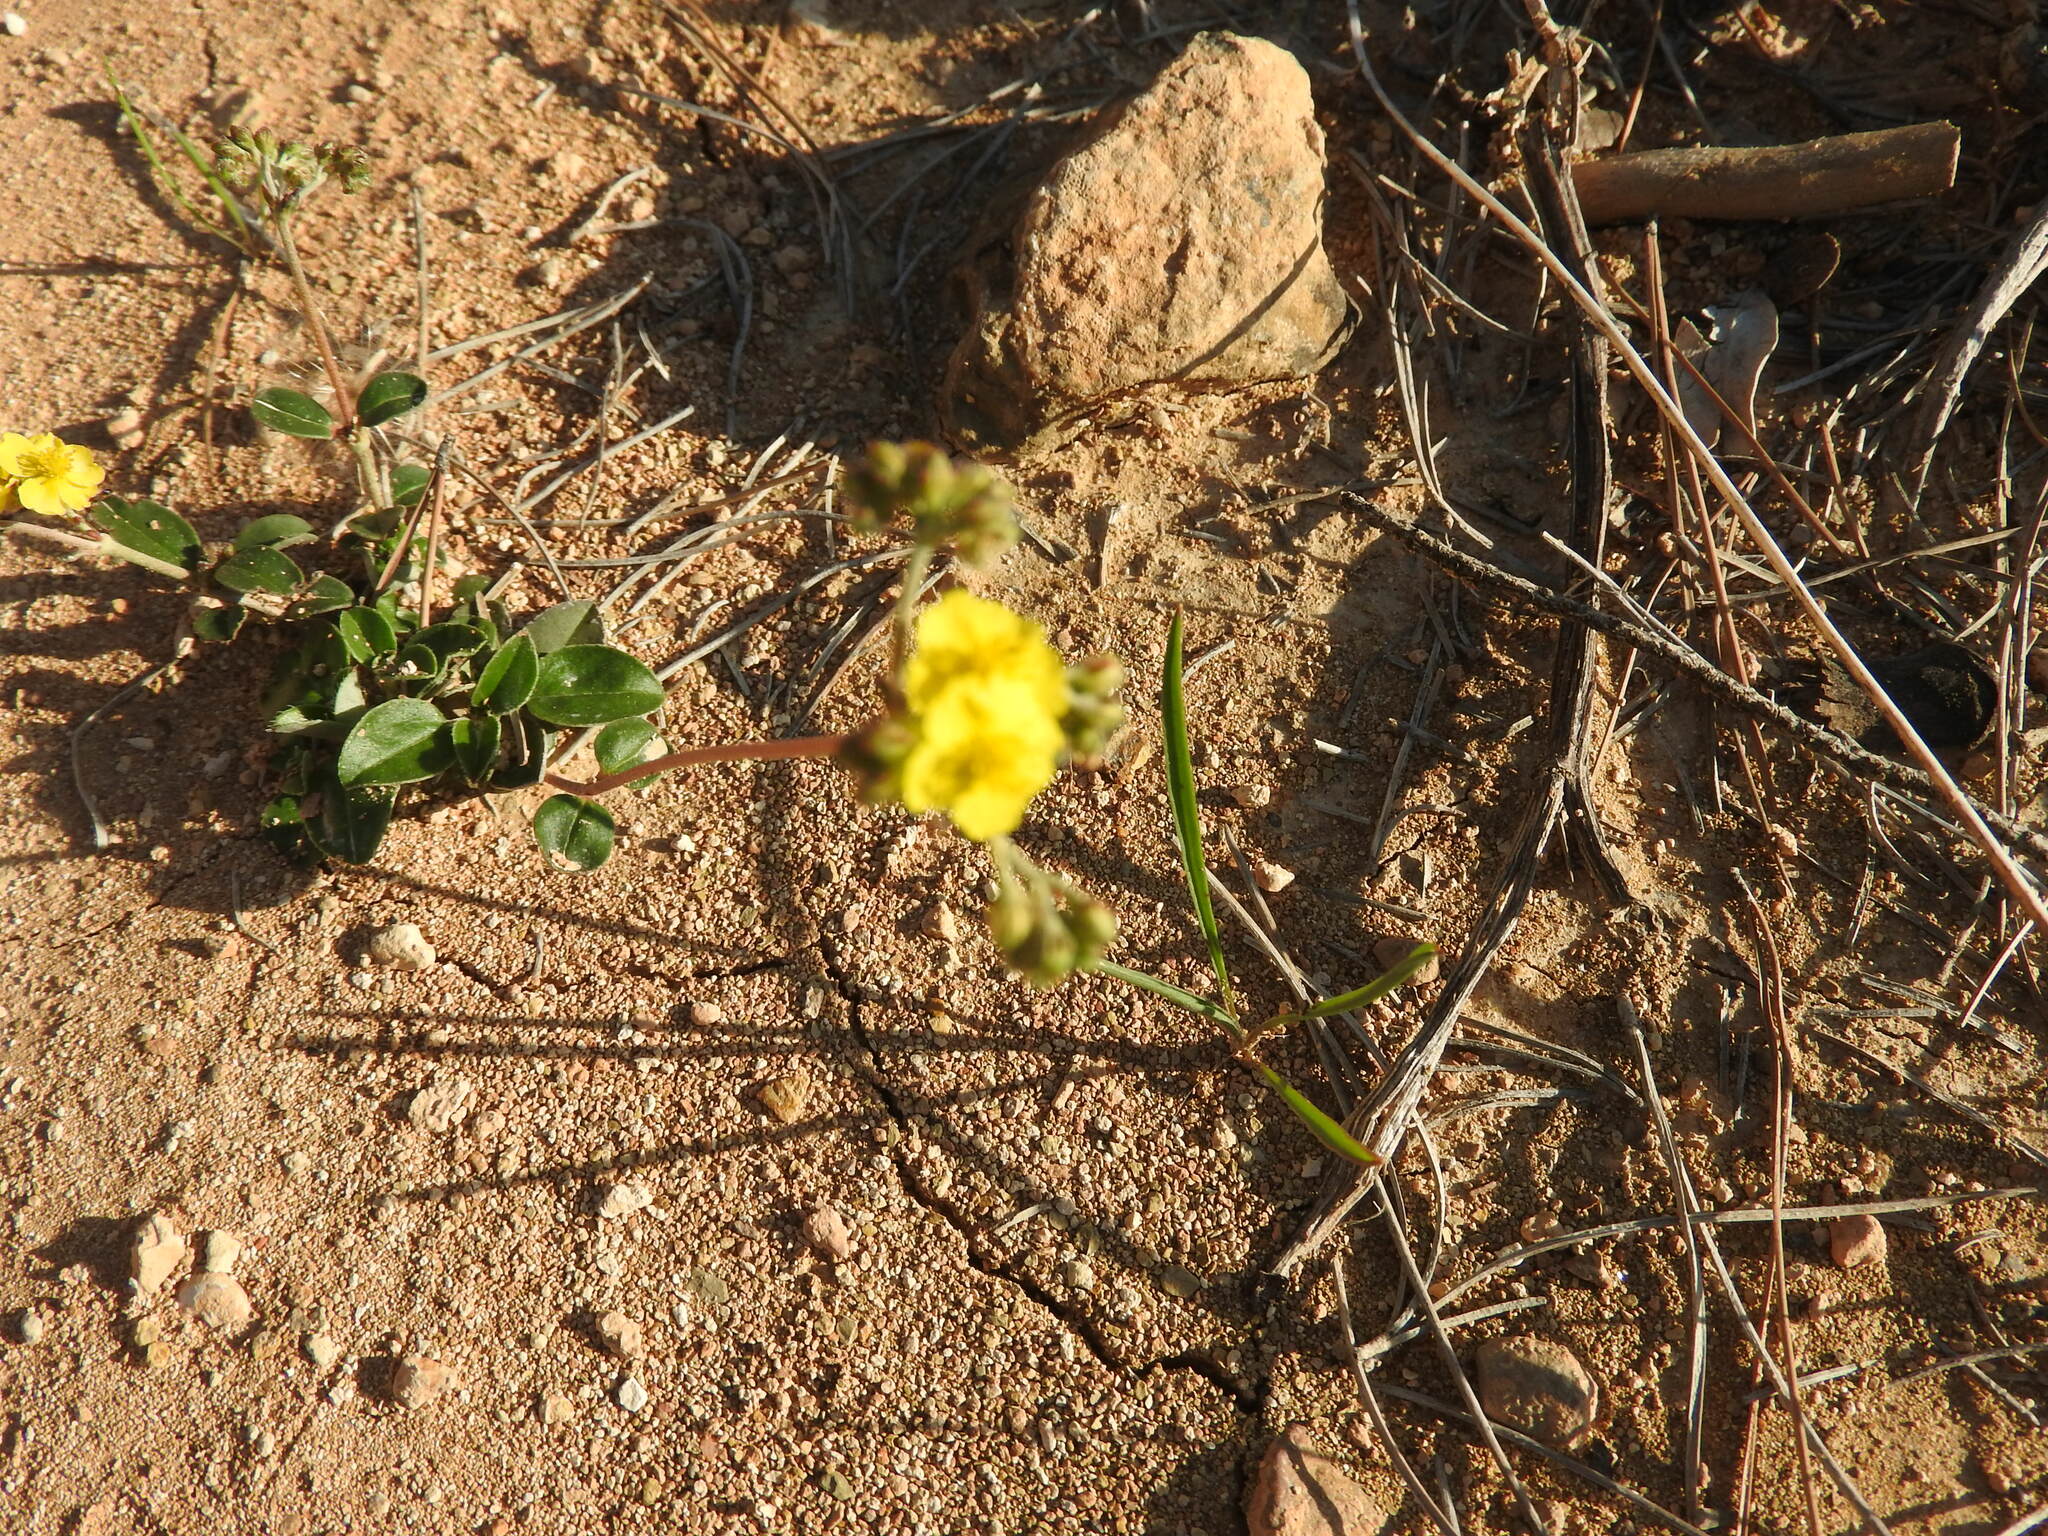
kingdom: Plantae
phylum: Tracheophyta
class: Magnoliopsida
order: Malvales
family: Cistaceae
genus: Helianthemum
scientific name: Helianthemum cinereum
